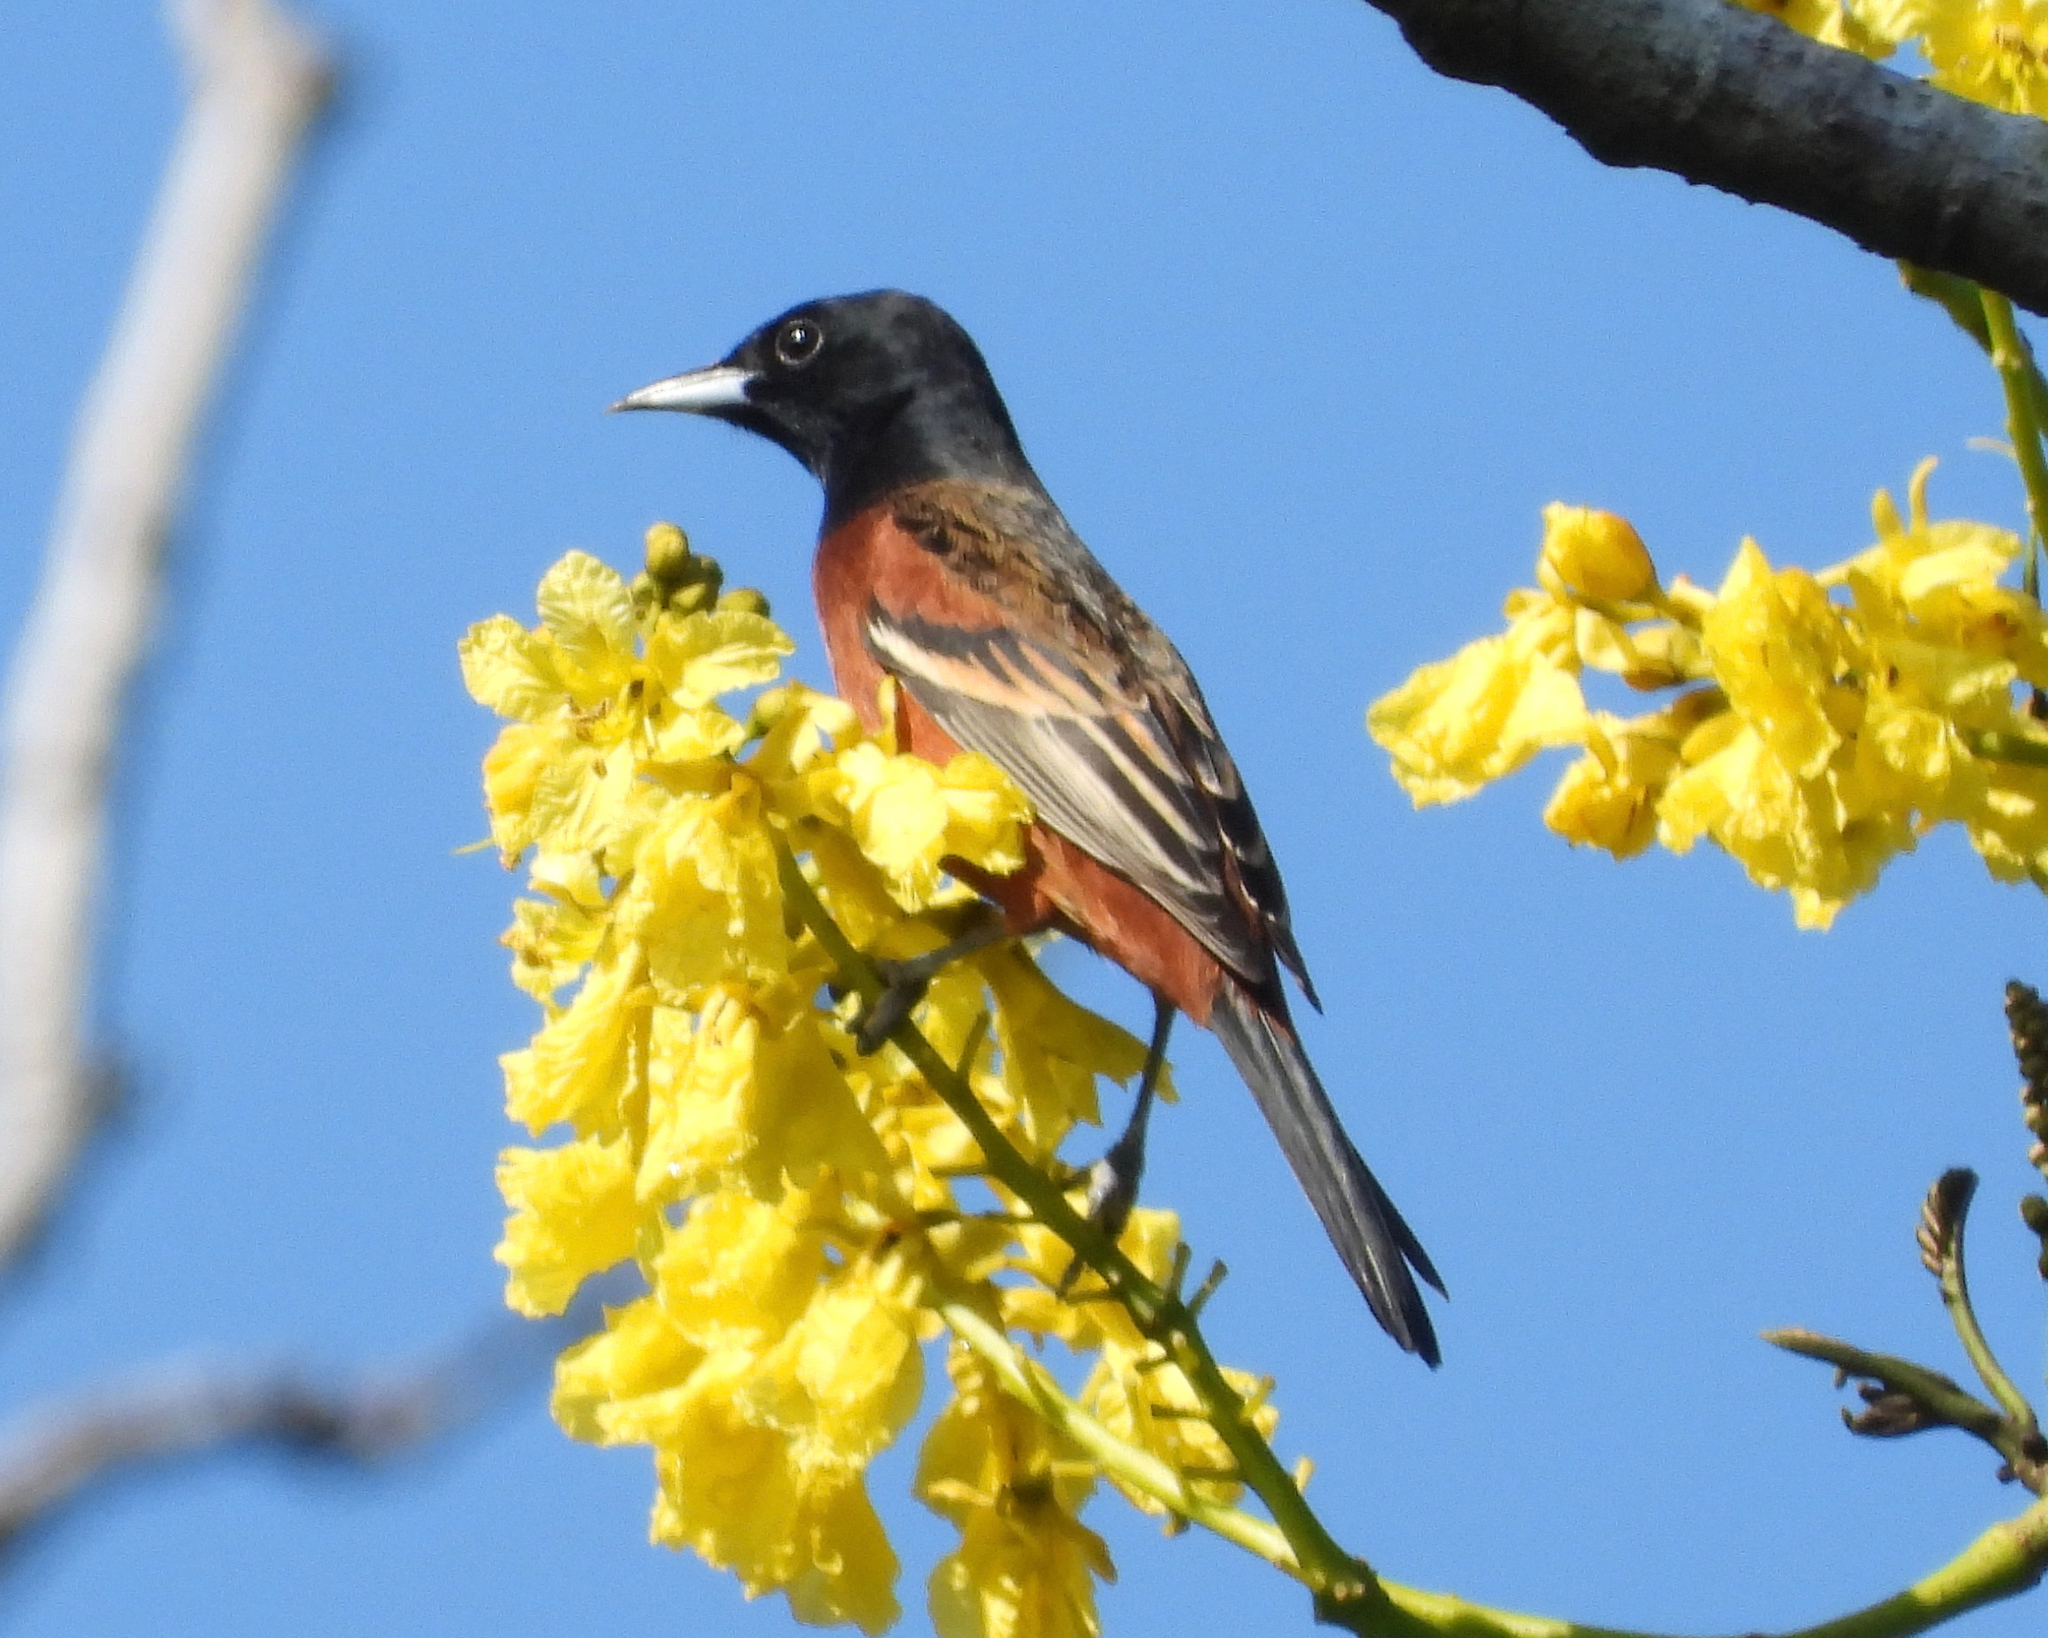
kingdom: Animalia
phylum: Chordata
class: Aves
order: Passeriformes
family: Icteridae
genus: Icterus
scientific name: Icterus spurius
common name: Orchard oriole
